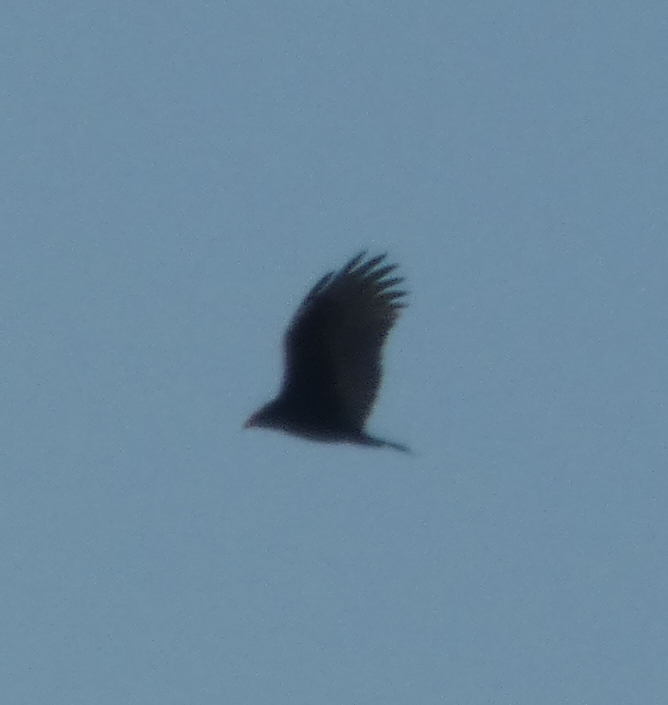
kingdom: Animalia
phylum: Chordata
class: Aves
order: Accipitriformes
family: Cathartidae
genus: Cathartes
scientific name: Cathartes aura
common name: Turkey vulture
